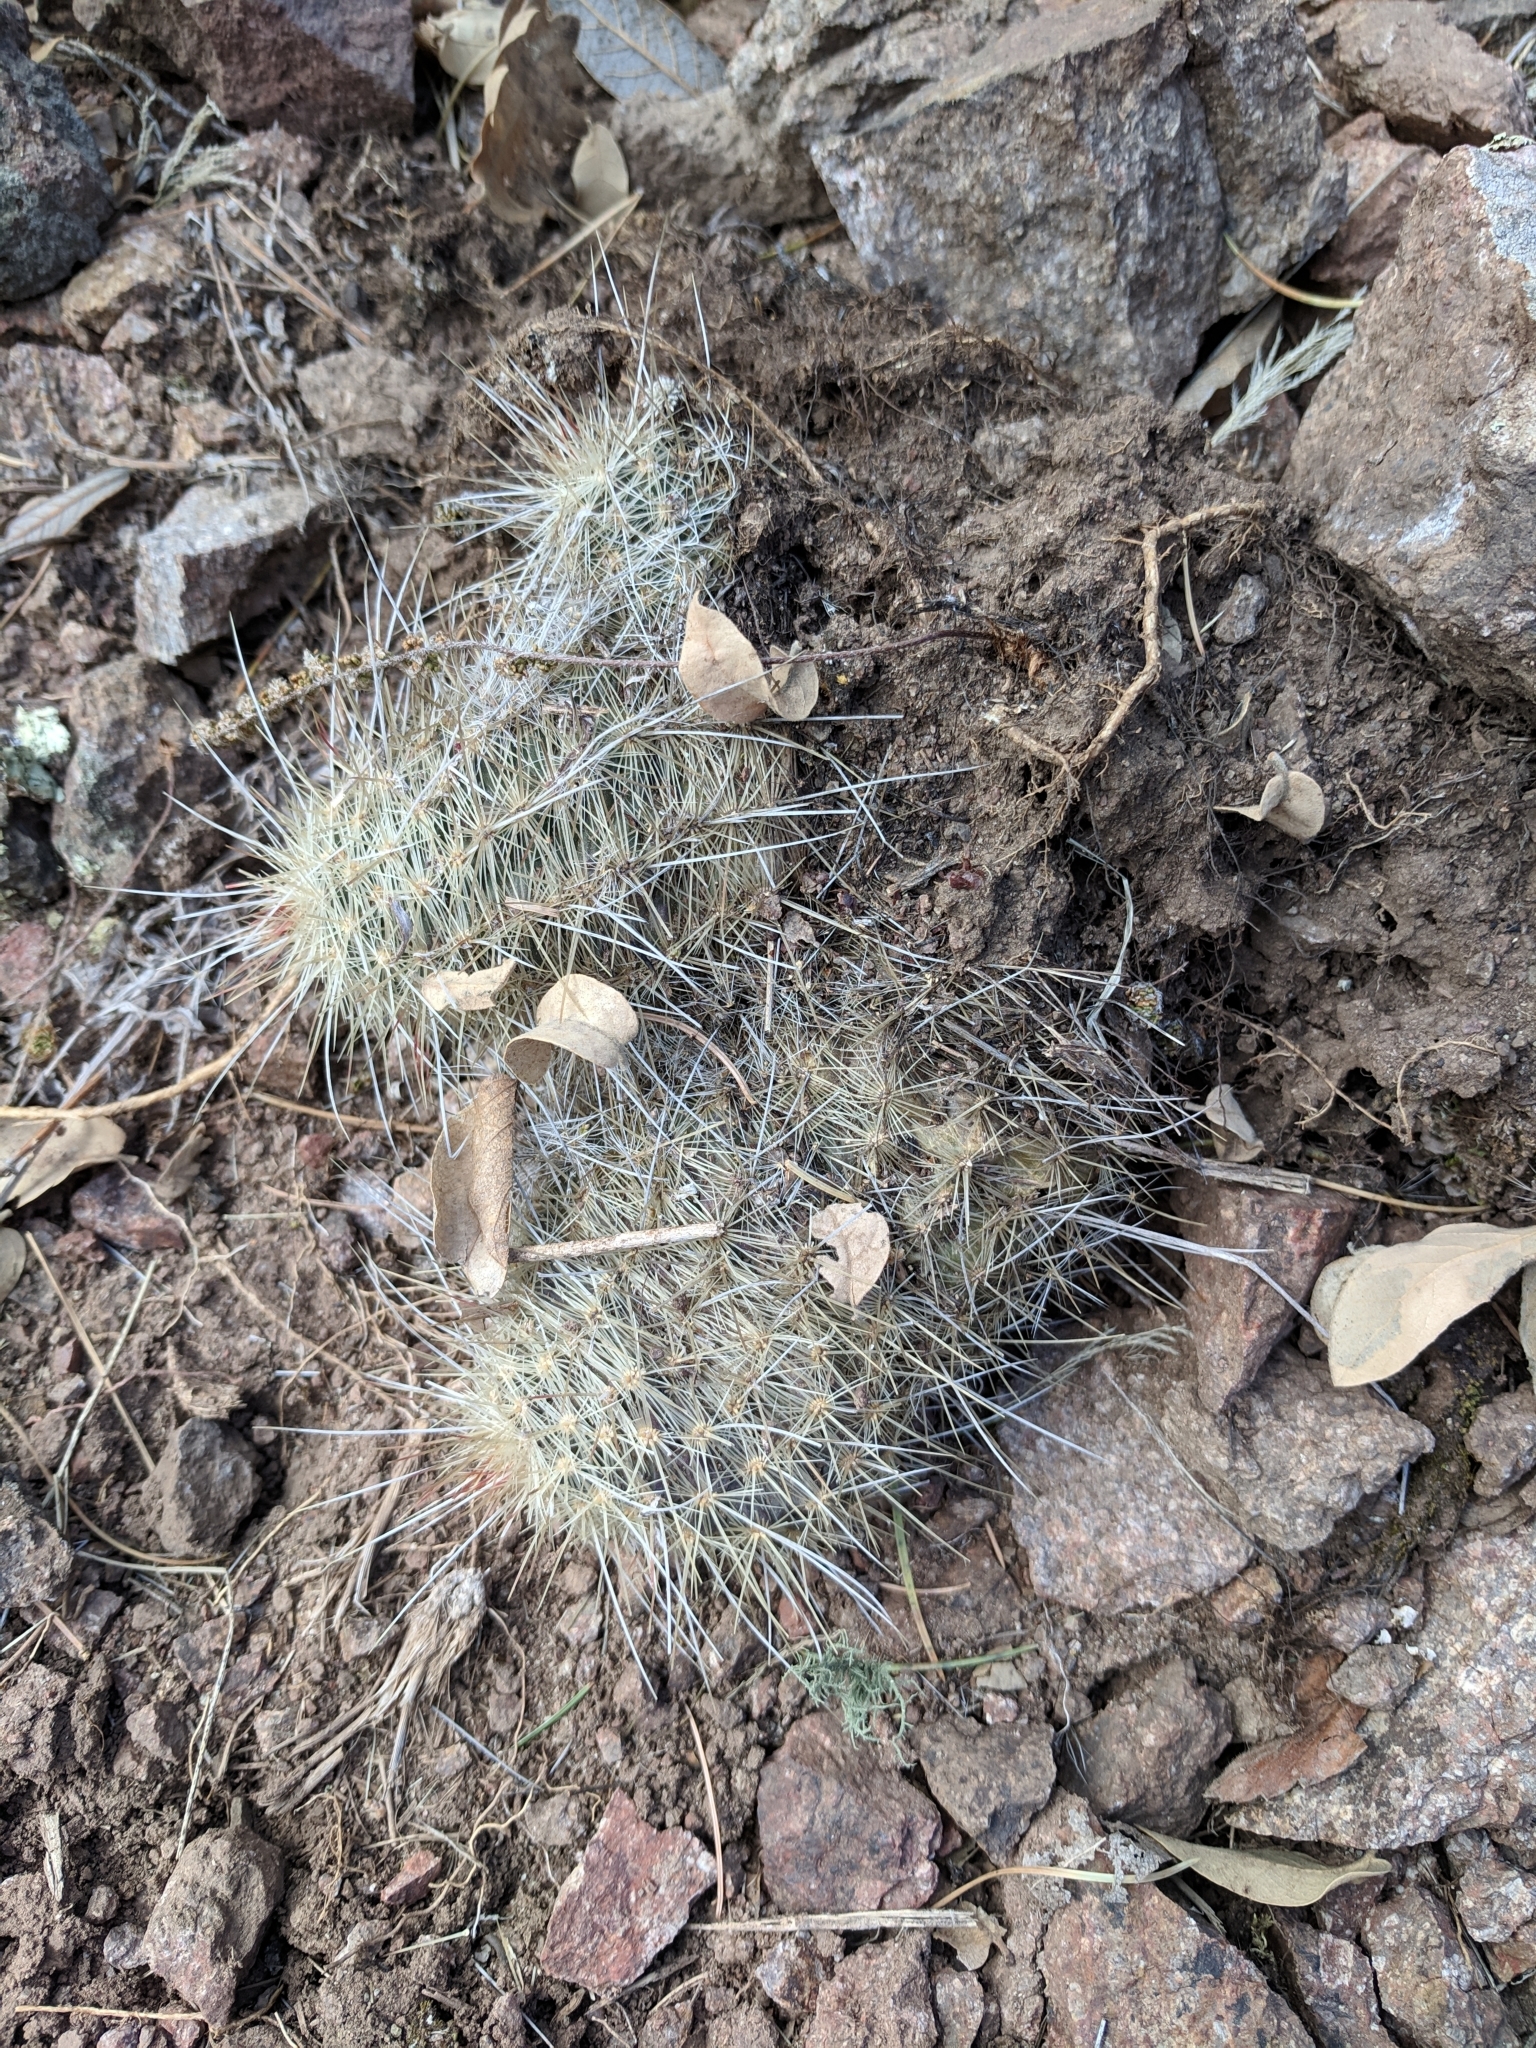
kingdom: Plantae
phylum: Tracheophyta
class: Magnoliopsida
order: Caryophyllales
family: Cactaceae
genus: Echinocereus
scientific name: Echinocereus
